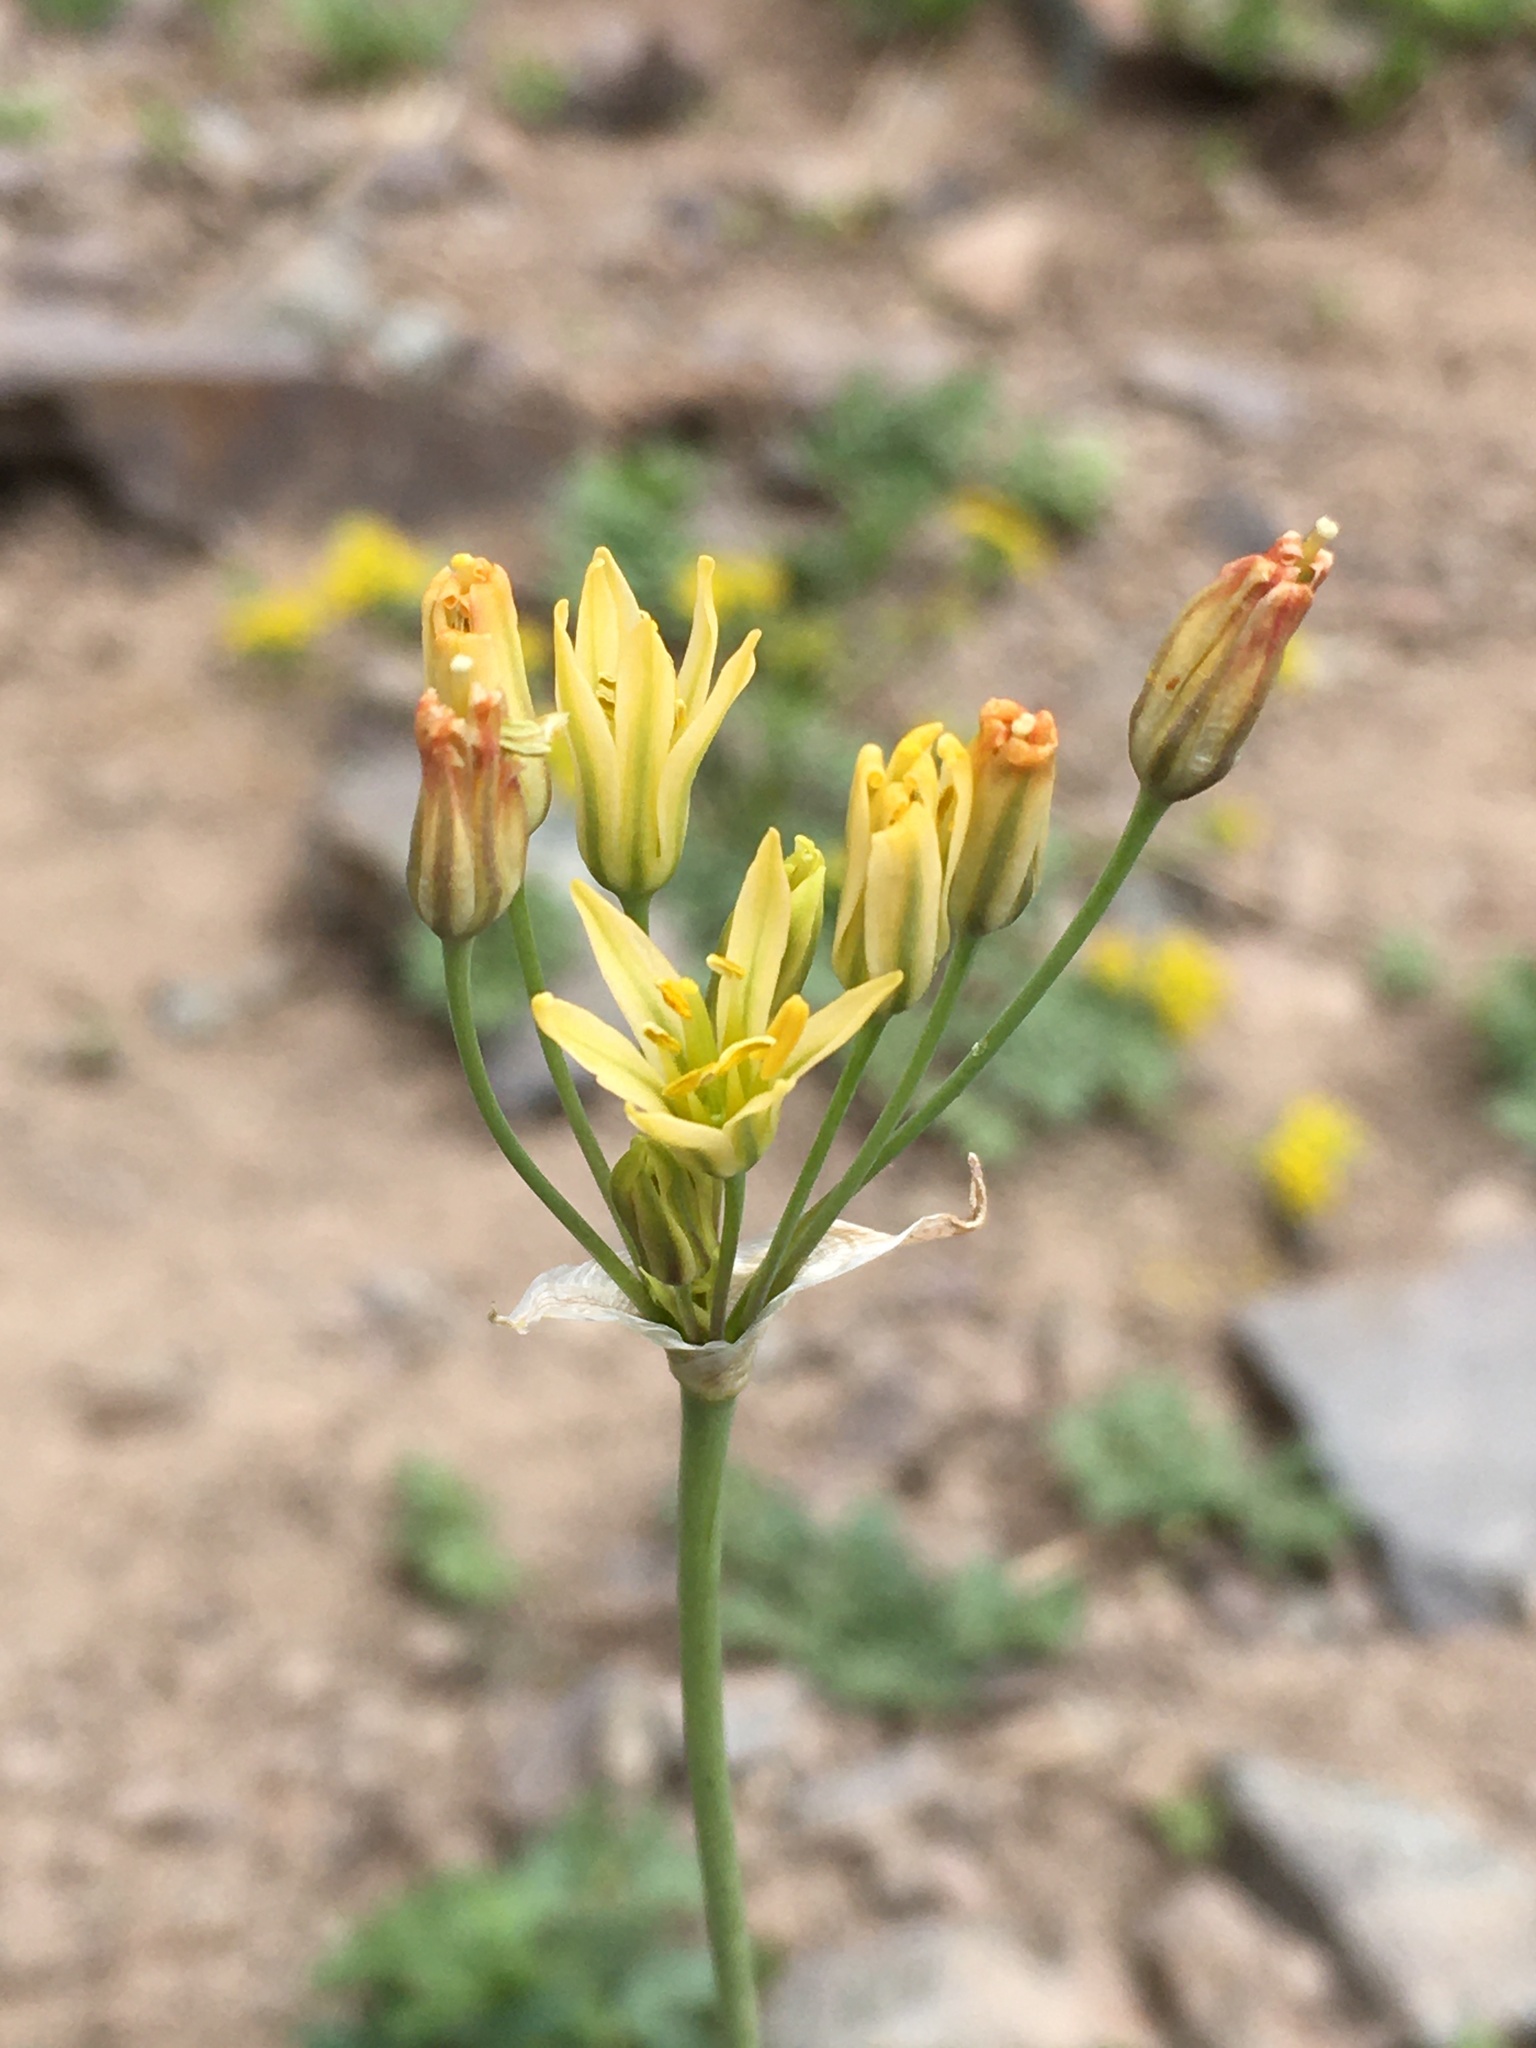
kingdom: Plantae
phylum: Tracheophyta
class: Liliopsida
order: Asparagales
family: Amaryllidaceae
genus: Latace
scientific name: Latace andina
